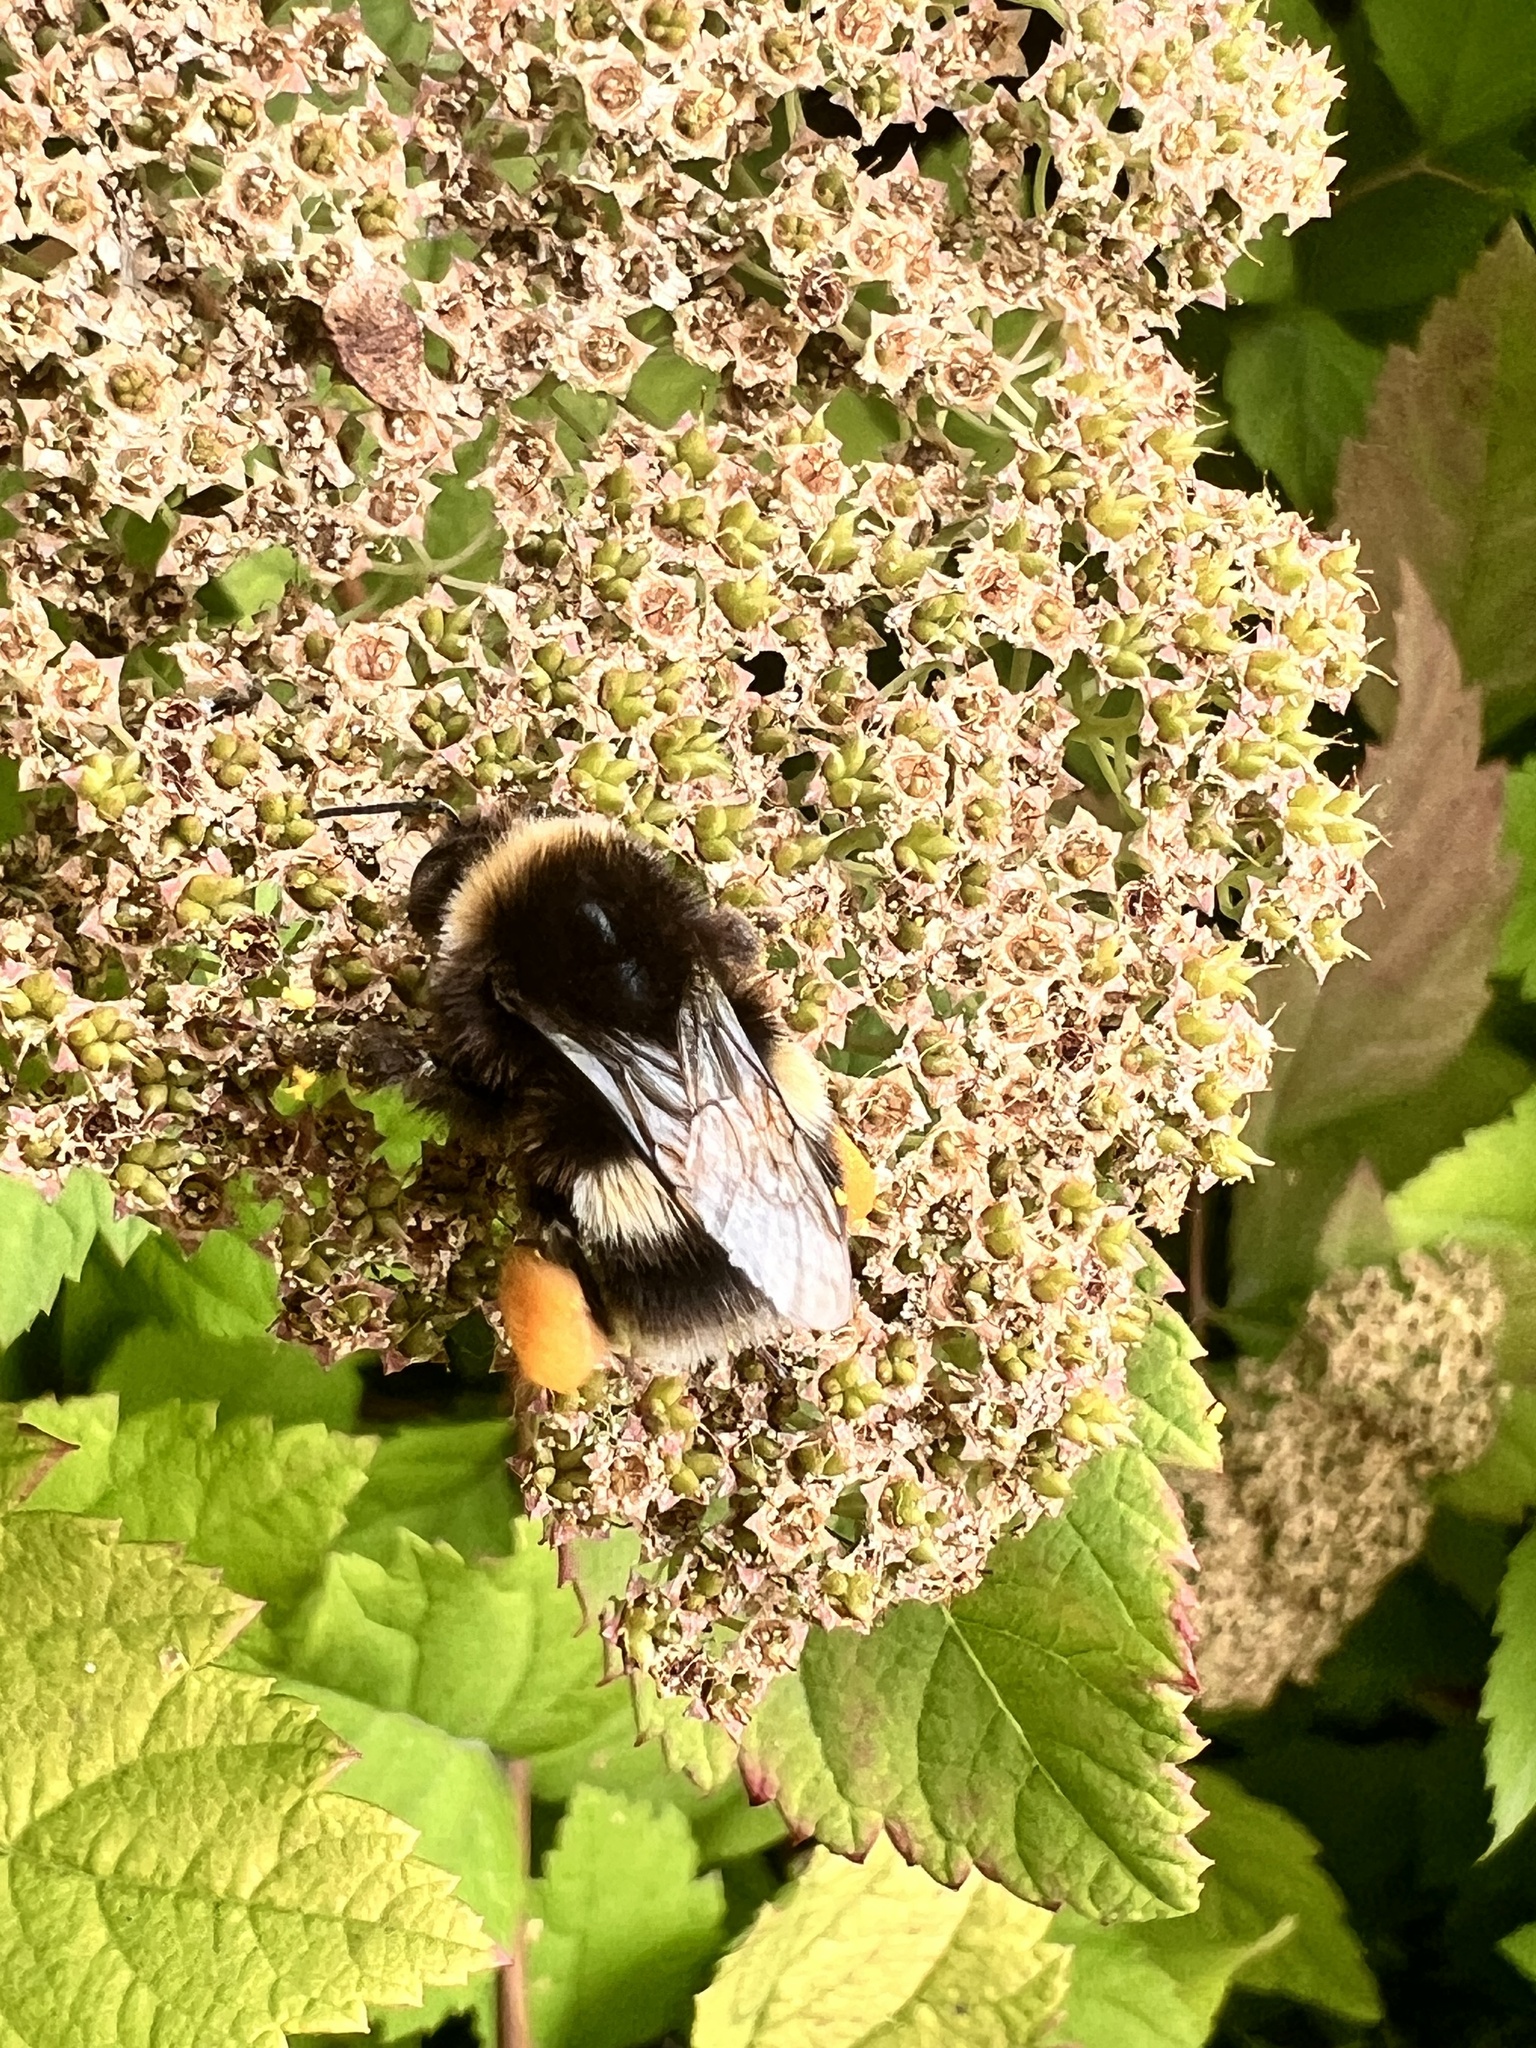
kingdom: Animalia
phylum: Arthropoda
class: Insecta
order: Hymenoptera
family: Apidae
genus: Bombus
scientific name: Bombus terrestris
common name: Buff-tailed bumblebee
